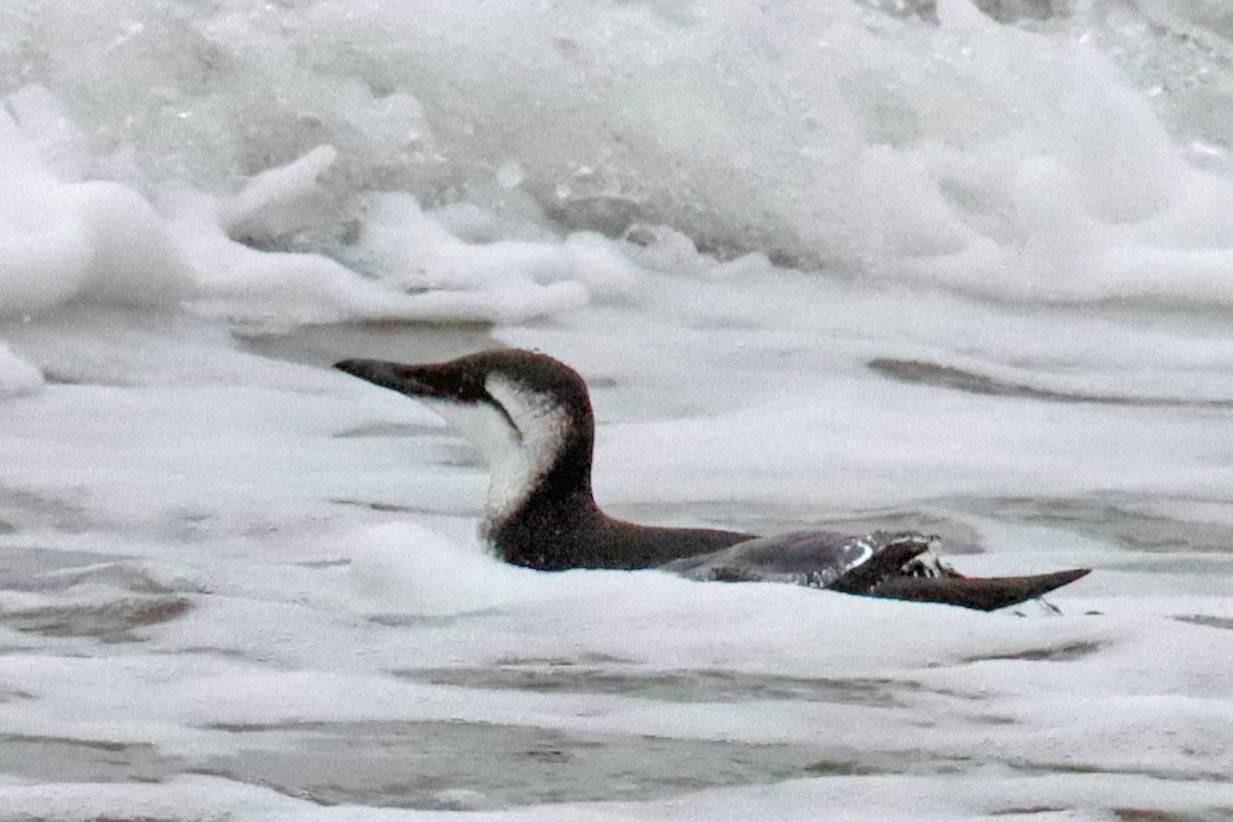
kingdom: Animalia
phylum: Chordata
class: Aves
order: Charadriiformes
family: Alcidae
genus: Uria
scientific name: Uria aalge
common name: Common murre
